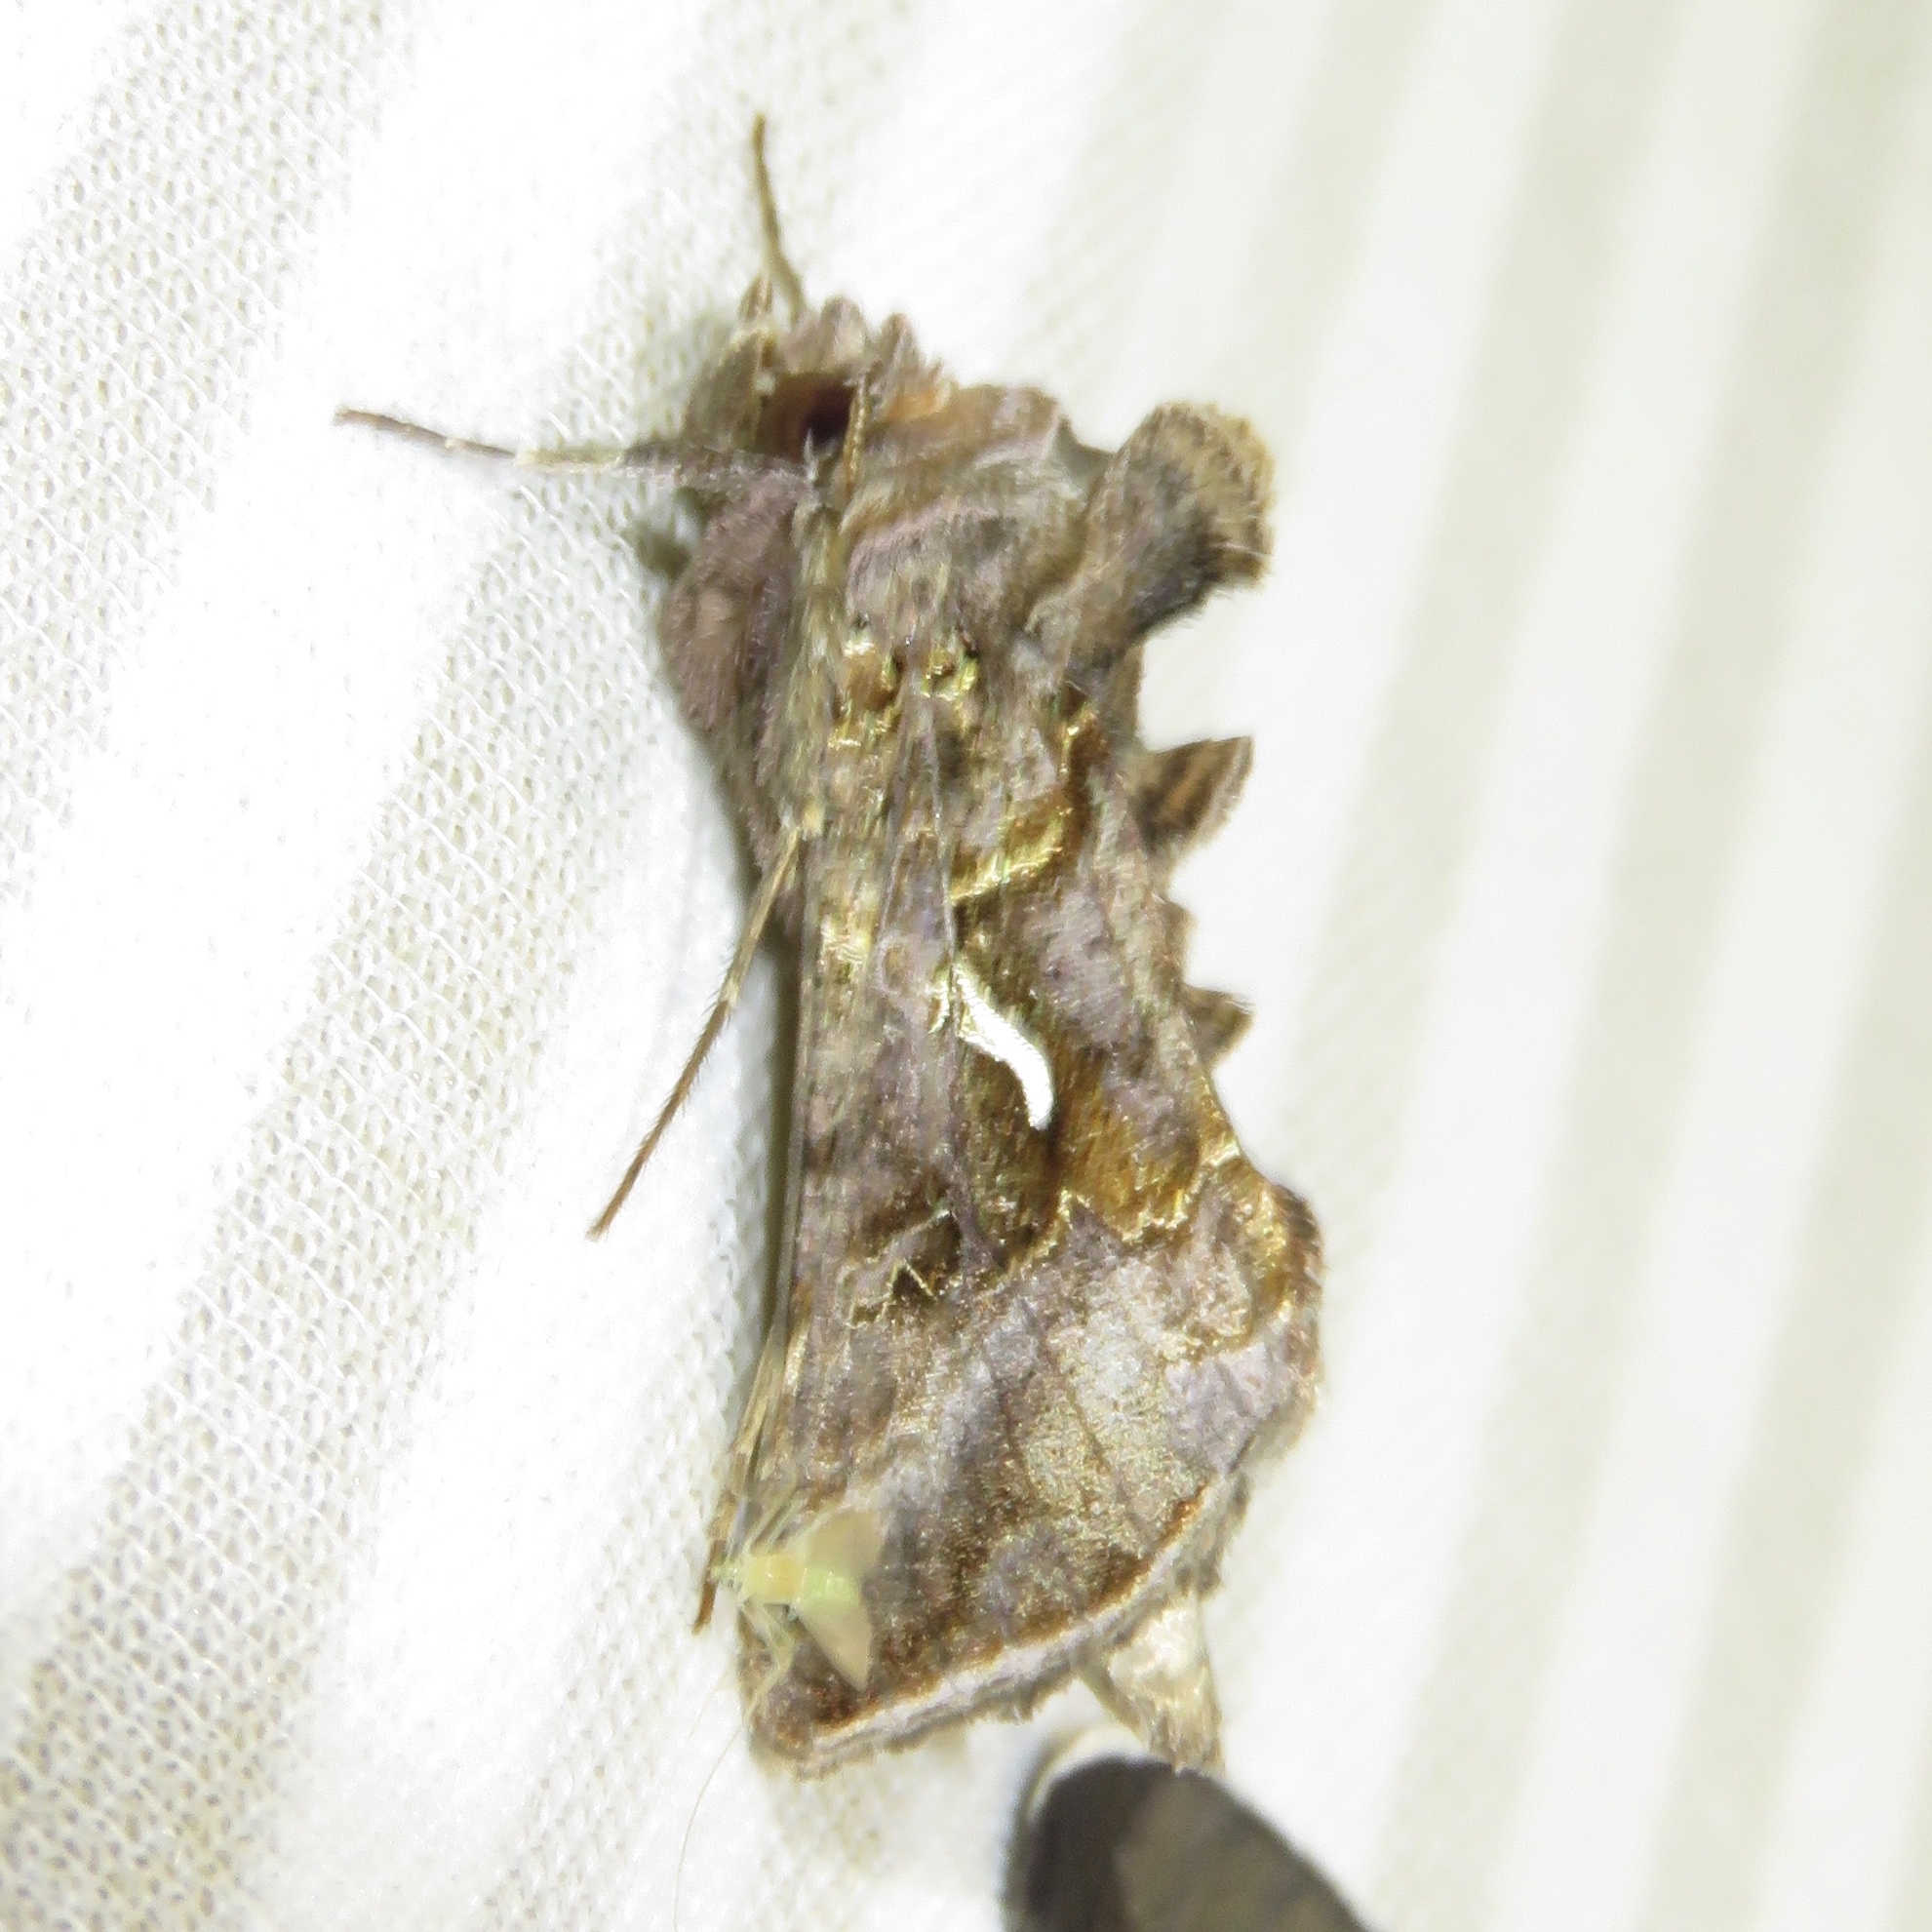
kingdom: Animalia
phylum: Arthropoda
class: Insecta
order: Lepidoptera
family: Noctuidae
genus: Autographa
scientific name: Autographa precationis
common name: Common looper moth
